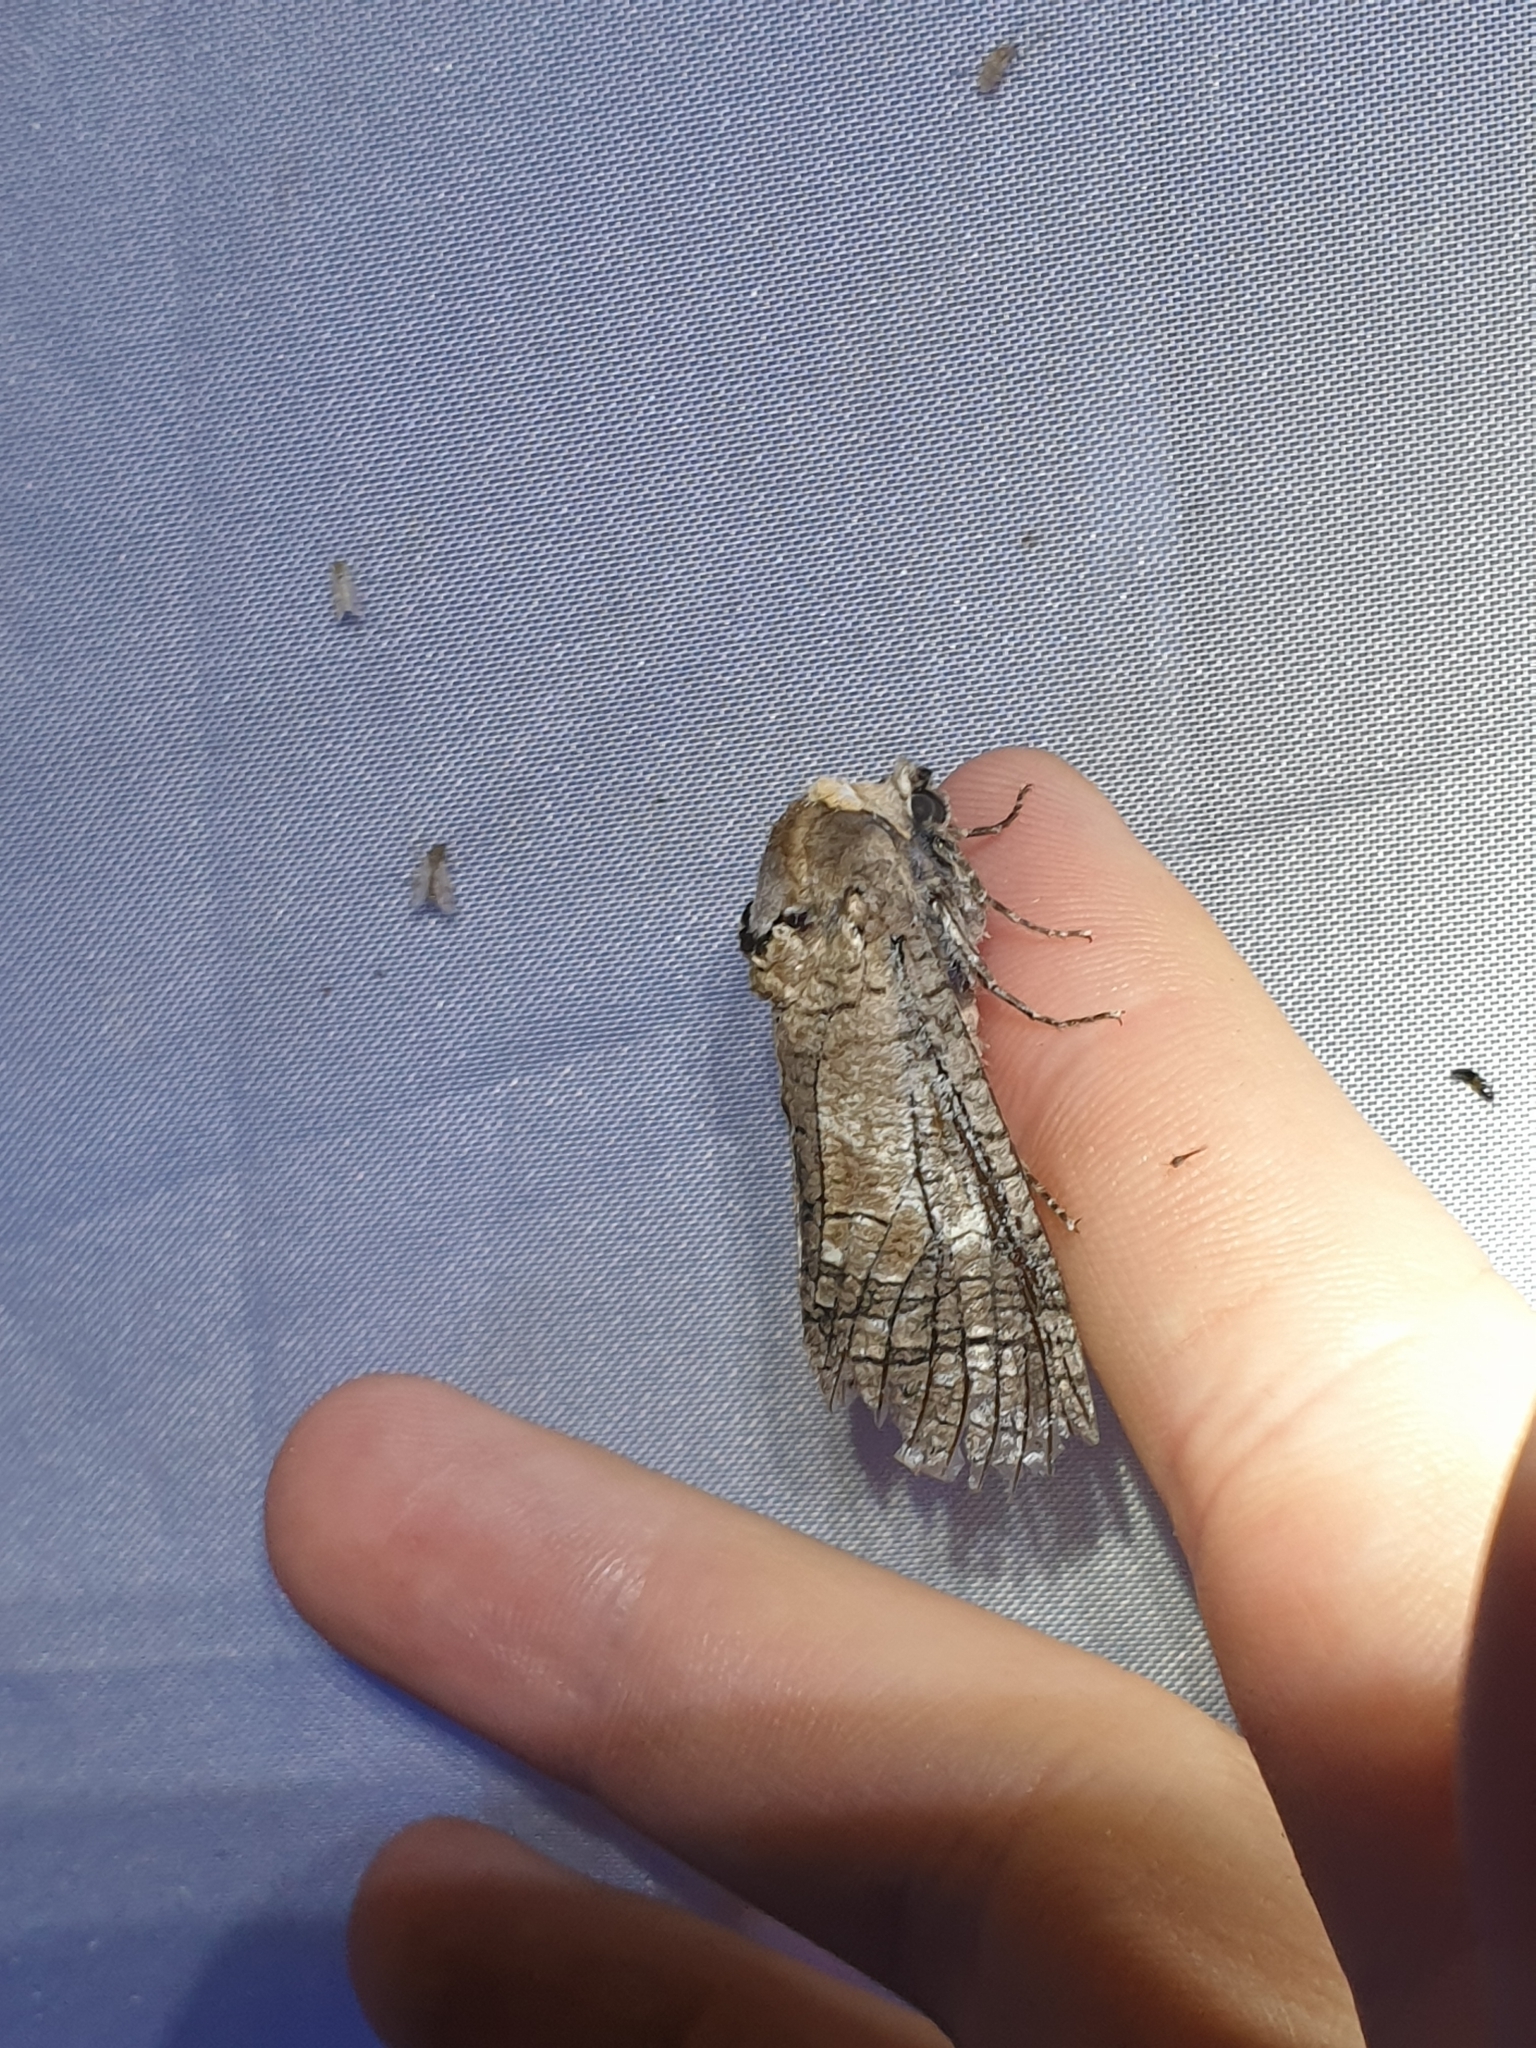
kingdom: Animalia
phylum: Arthropoda
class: Insecta
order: Lepidoptera
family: Cossidae
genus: Cossus
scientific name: Cossus cossus
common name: Goat moth
